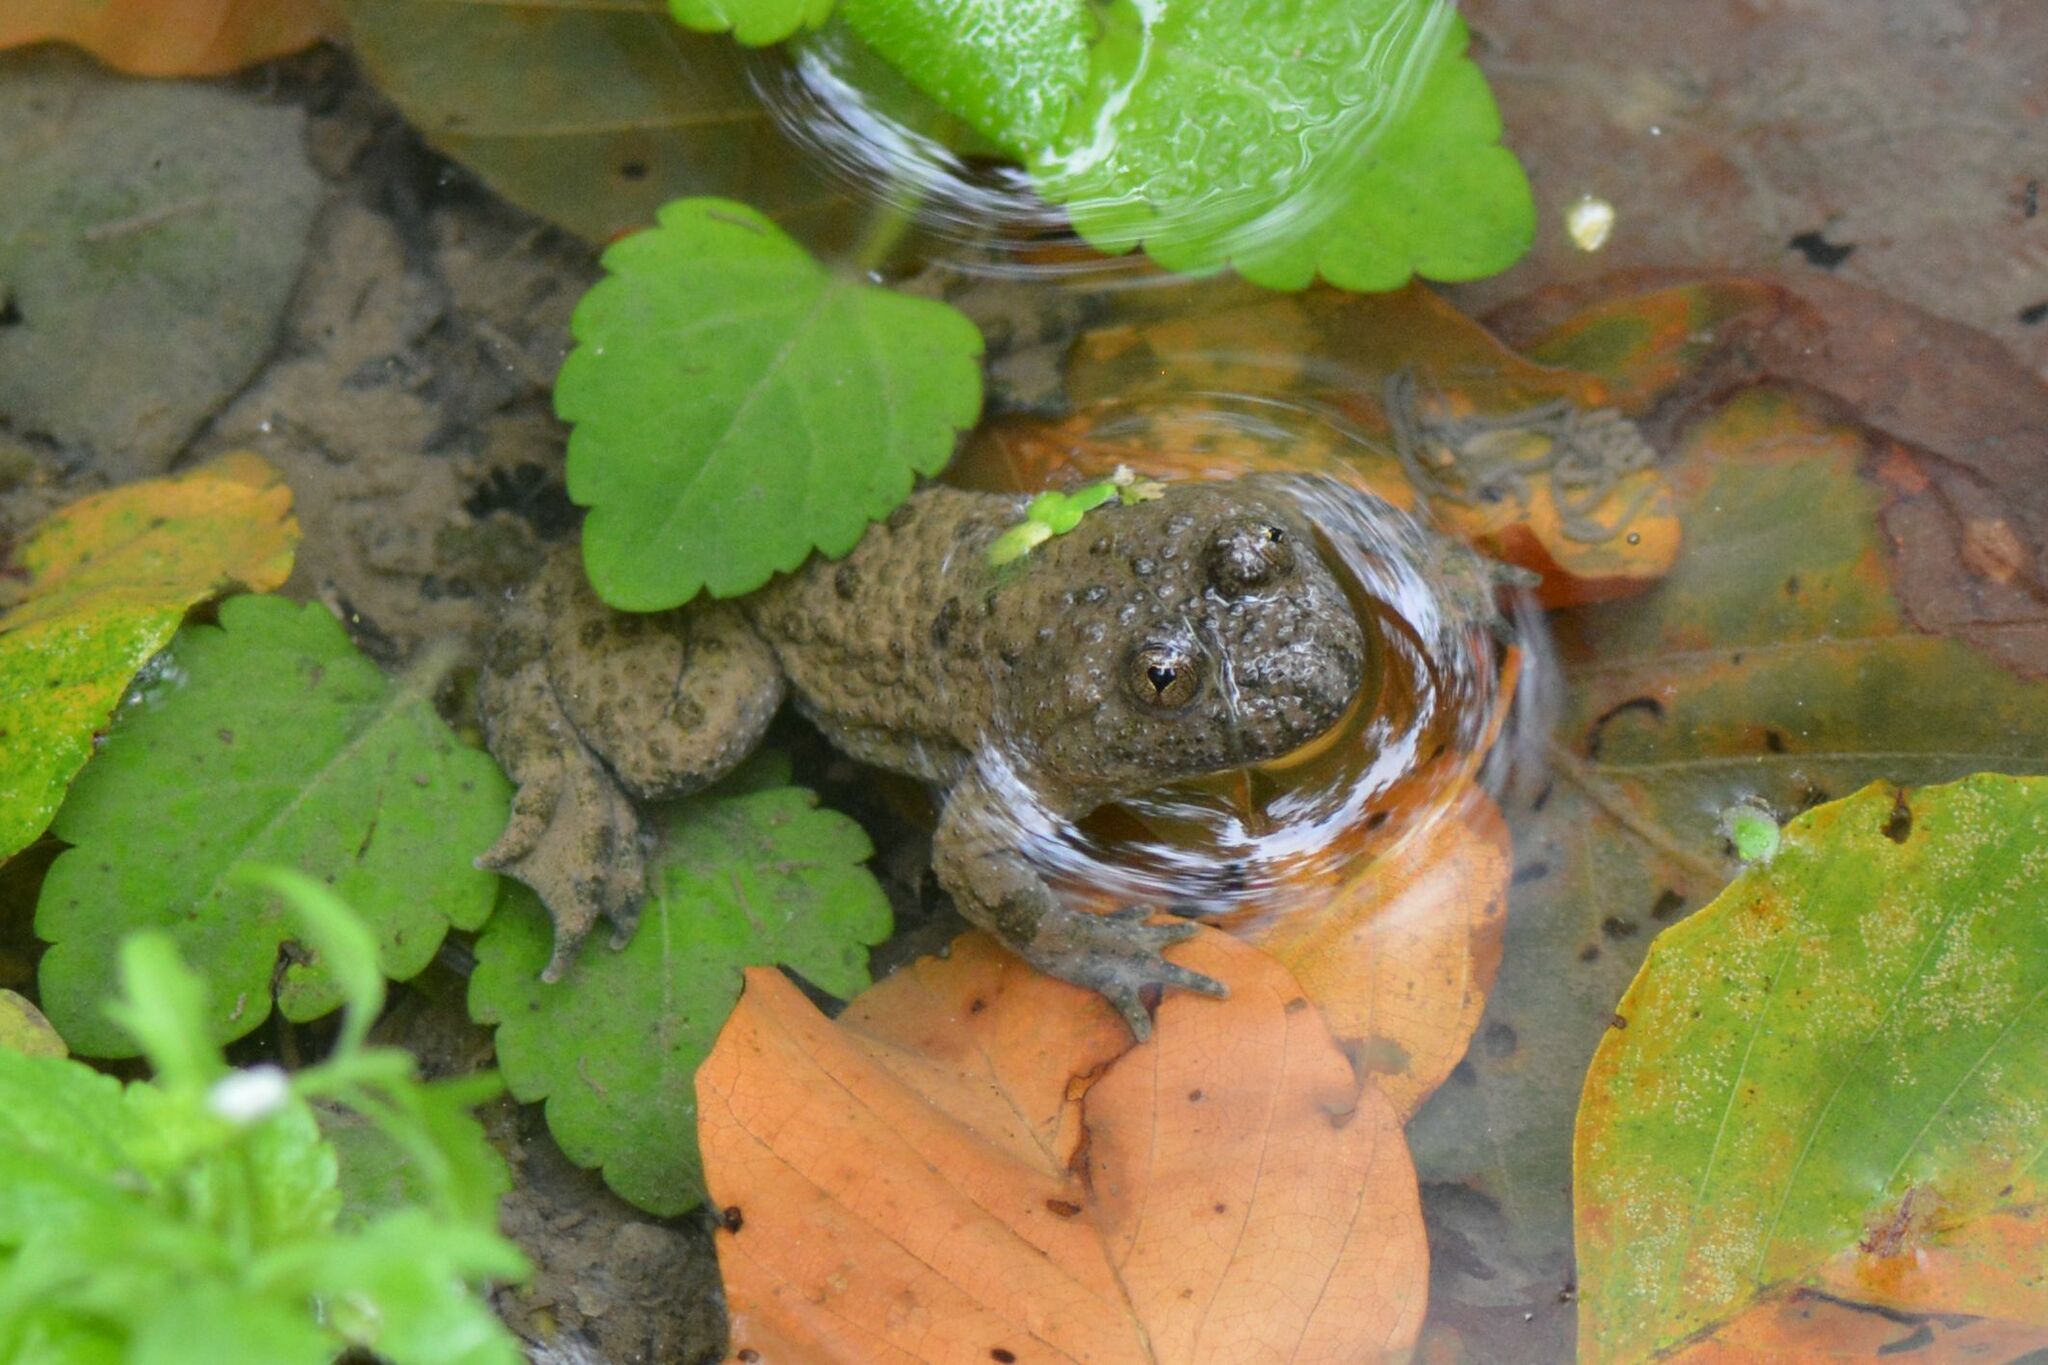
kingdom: Animalia
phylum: Chordata
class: Amphibia
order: Anura
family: Bombinatoridae
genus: Bombina
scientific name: Bombina variegata
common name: Yellow-bellied toad
